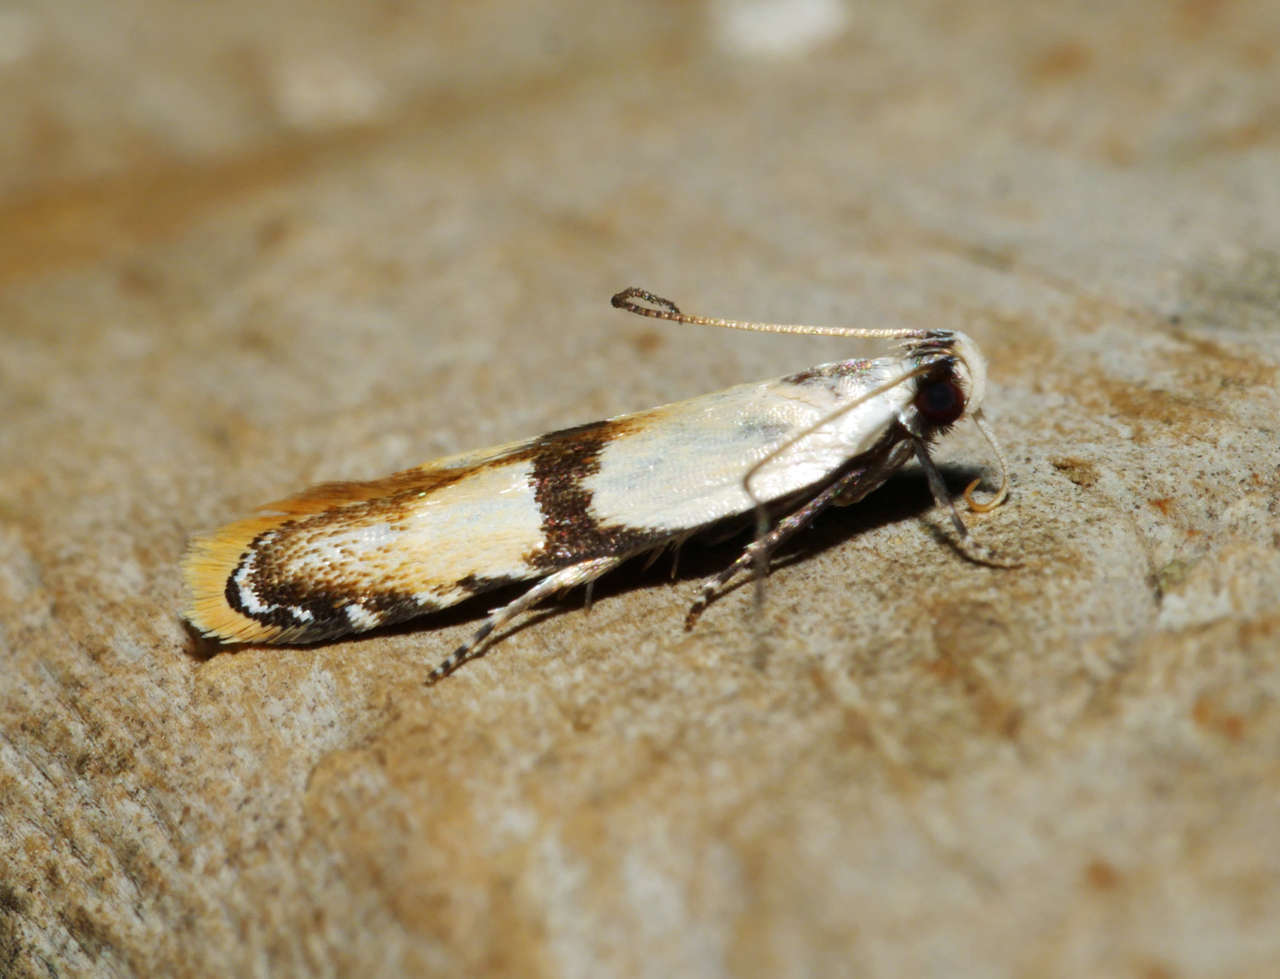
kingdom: Animalia
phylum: Arthropoda
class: Insecta
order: Lepidoptera
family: Gelechiidae
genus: Ardozyga
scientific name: Ardozyga desmatra
